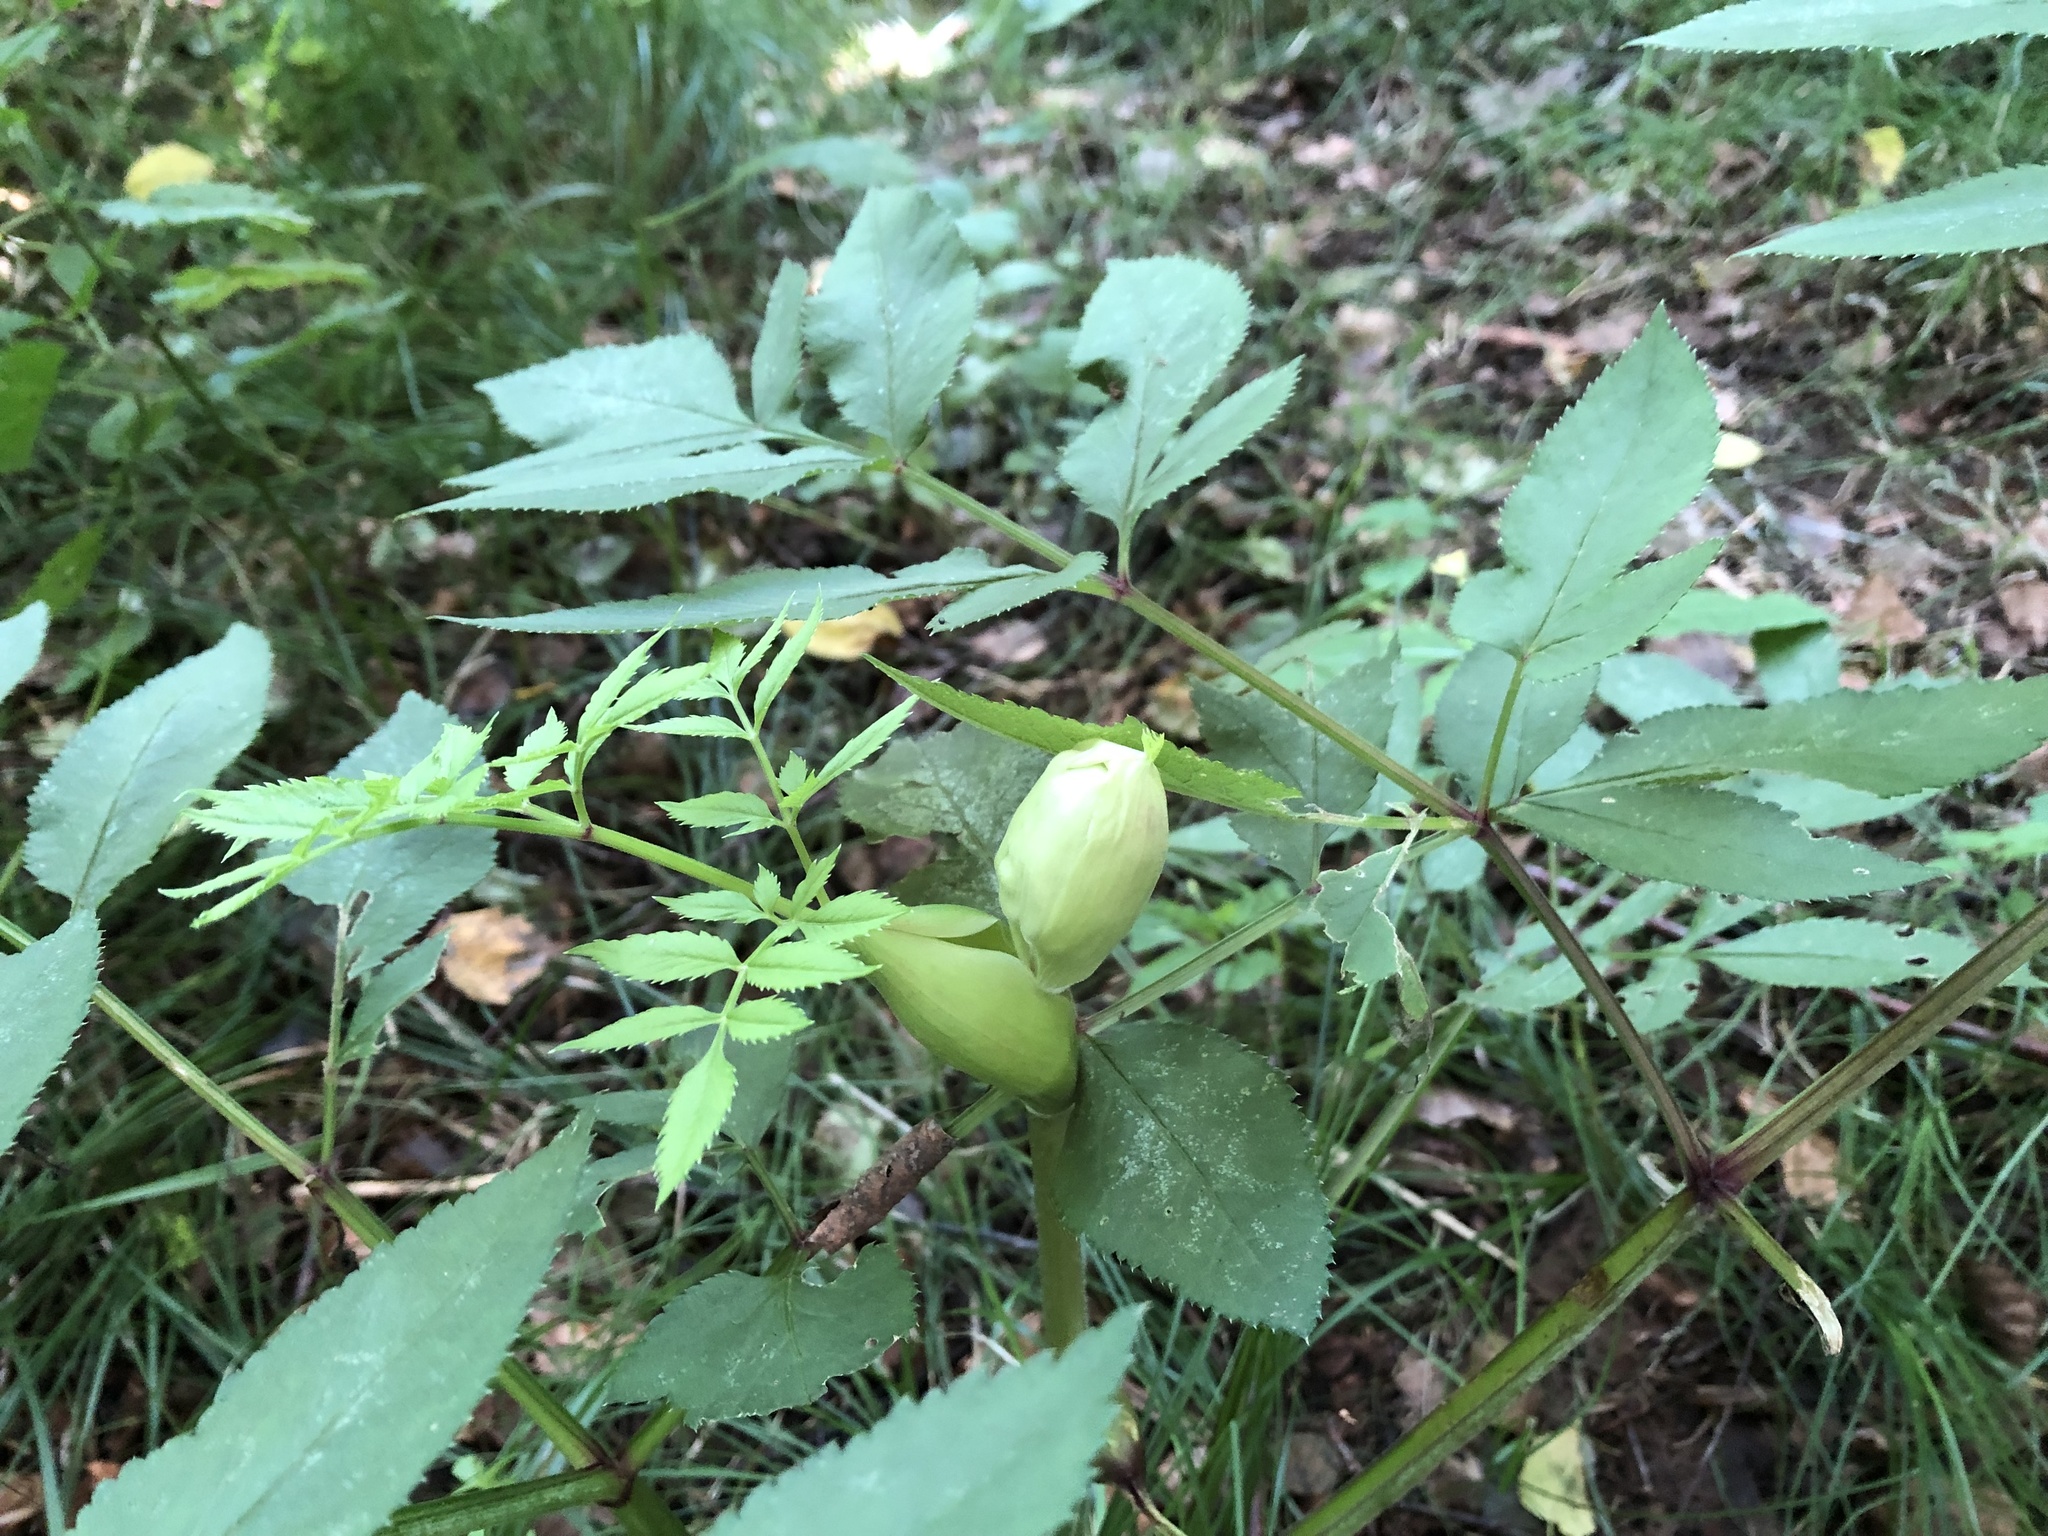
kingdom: Plantae
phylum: Tracheophyta
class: Magnoliopsida
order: Apiales
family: Apiaceae
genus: Angelica
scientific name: Angelica sylvestris
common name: Wild angelica
